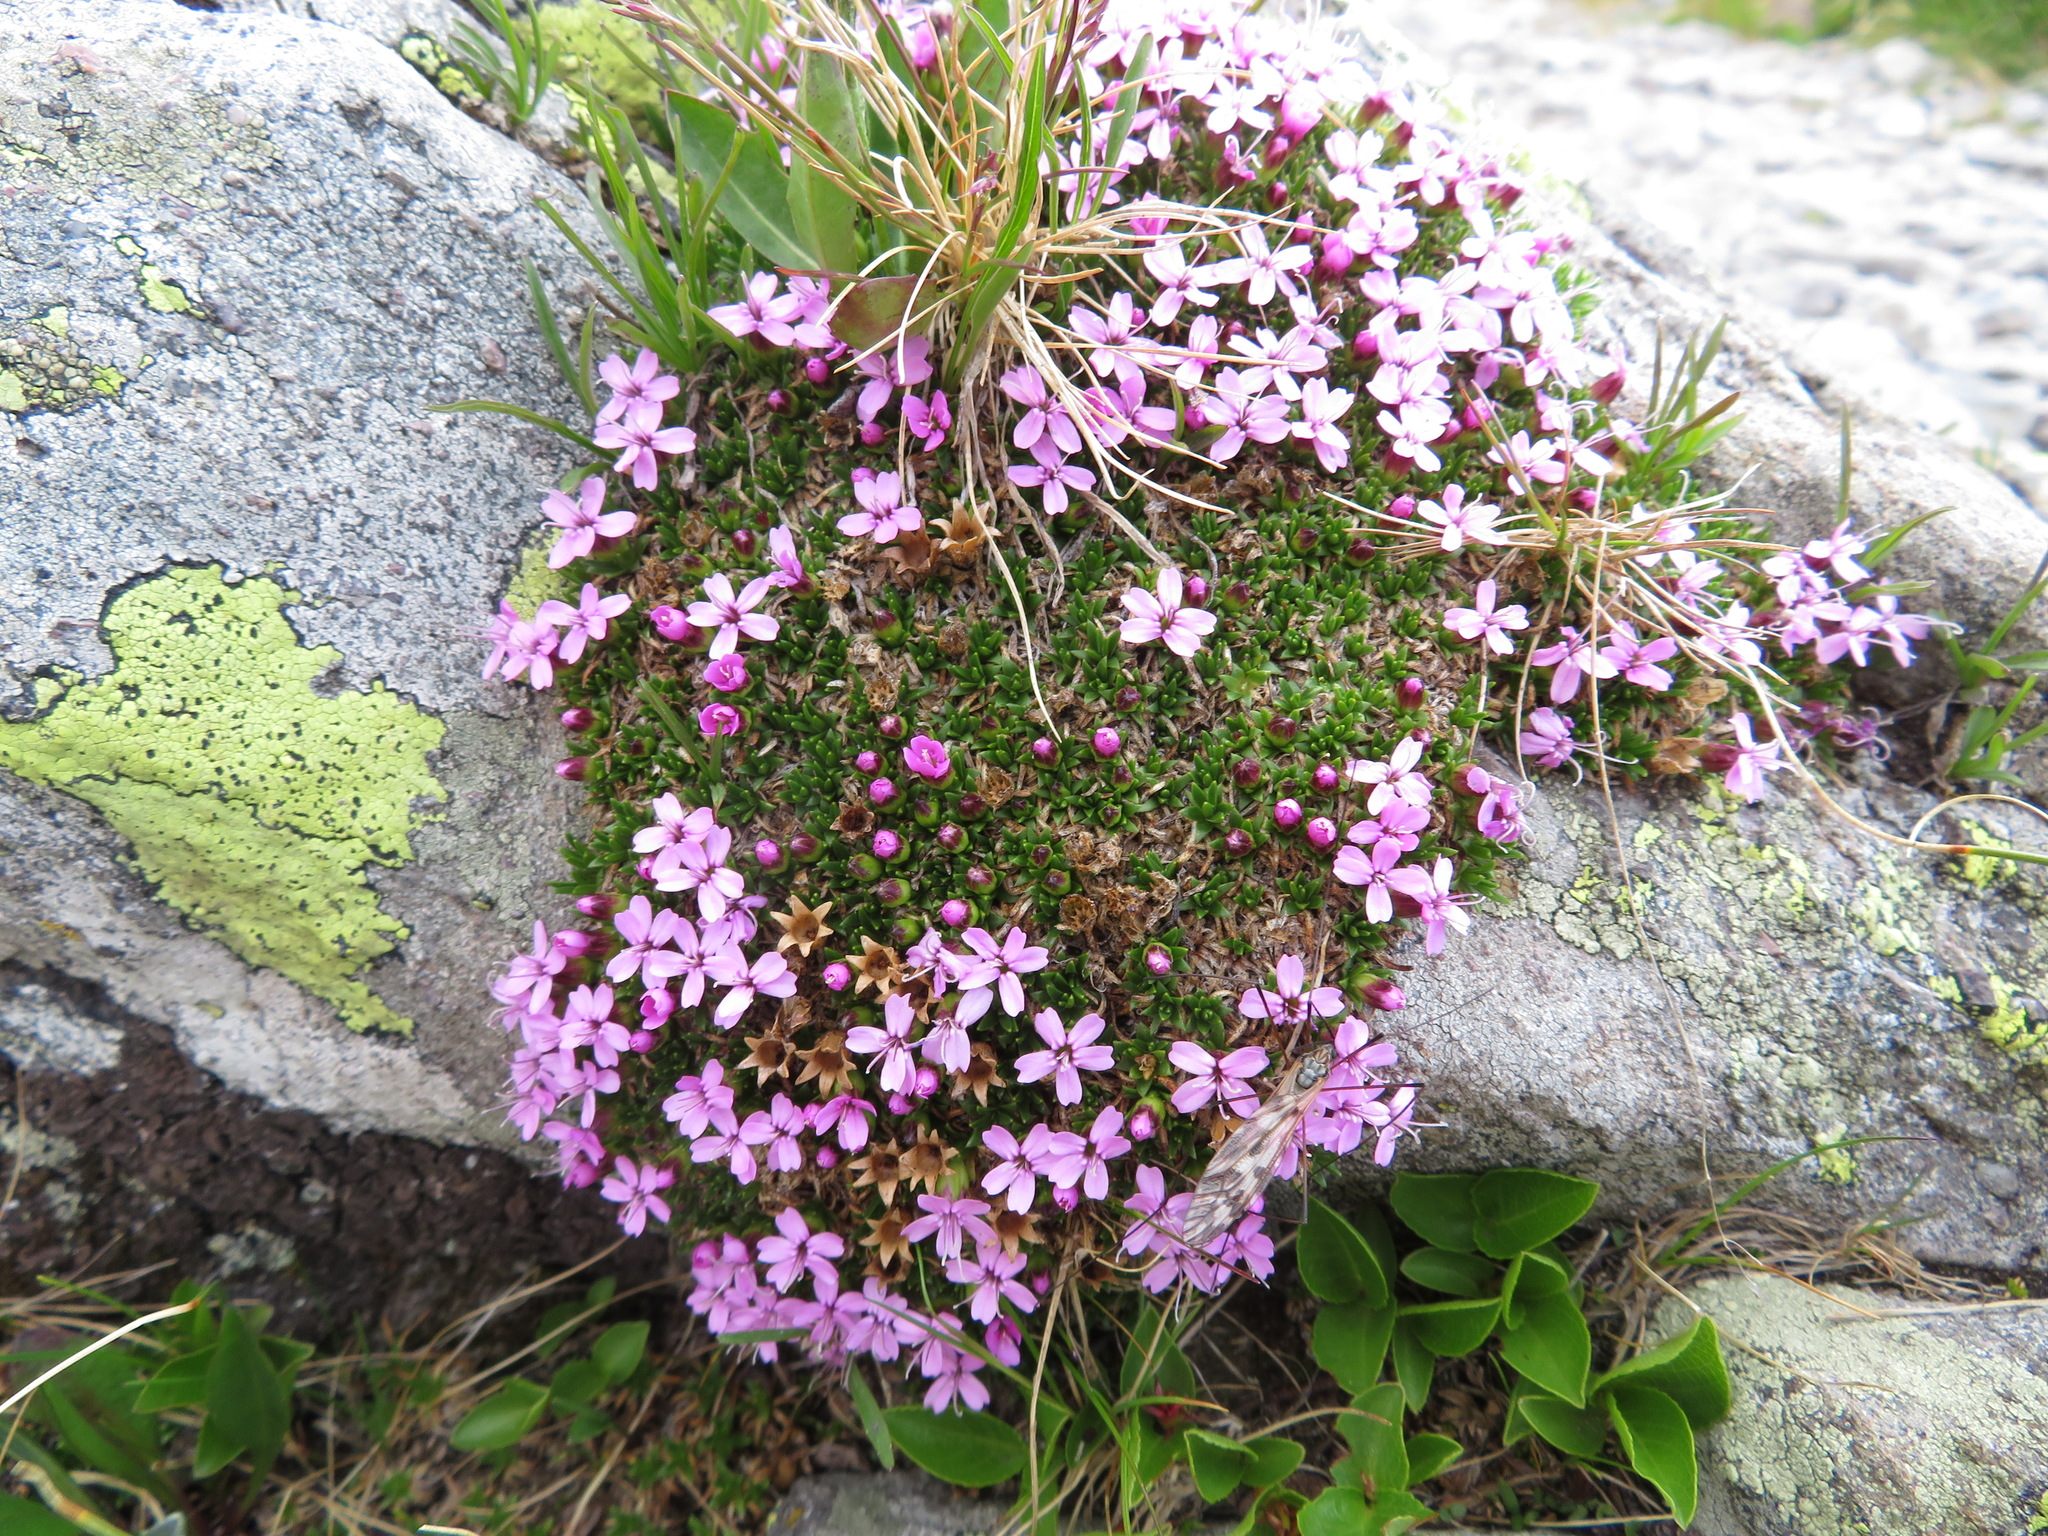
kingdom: Plantae
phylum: Tracheophyta
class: Magnoliopsida
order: Caryophyllales
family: Caryophyllaceae
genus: Silene
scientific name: Silene acaulis
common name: Moss campion
